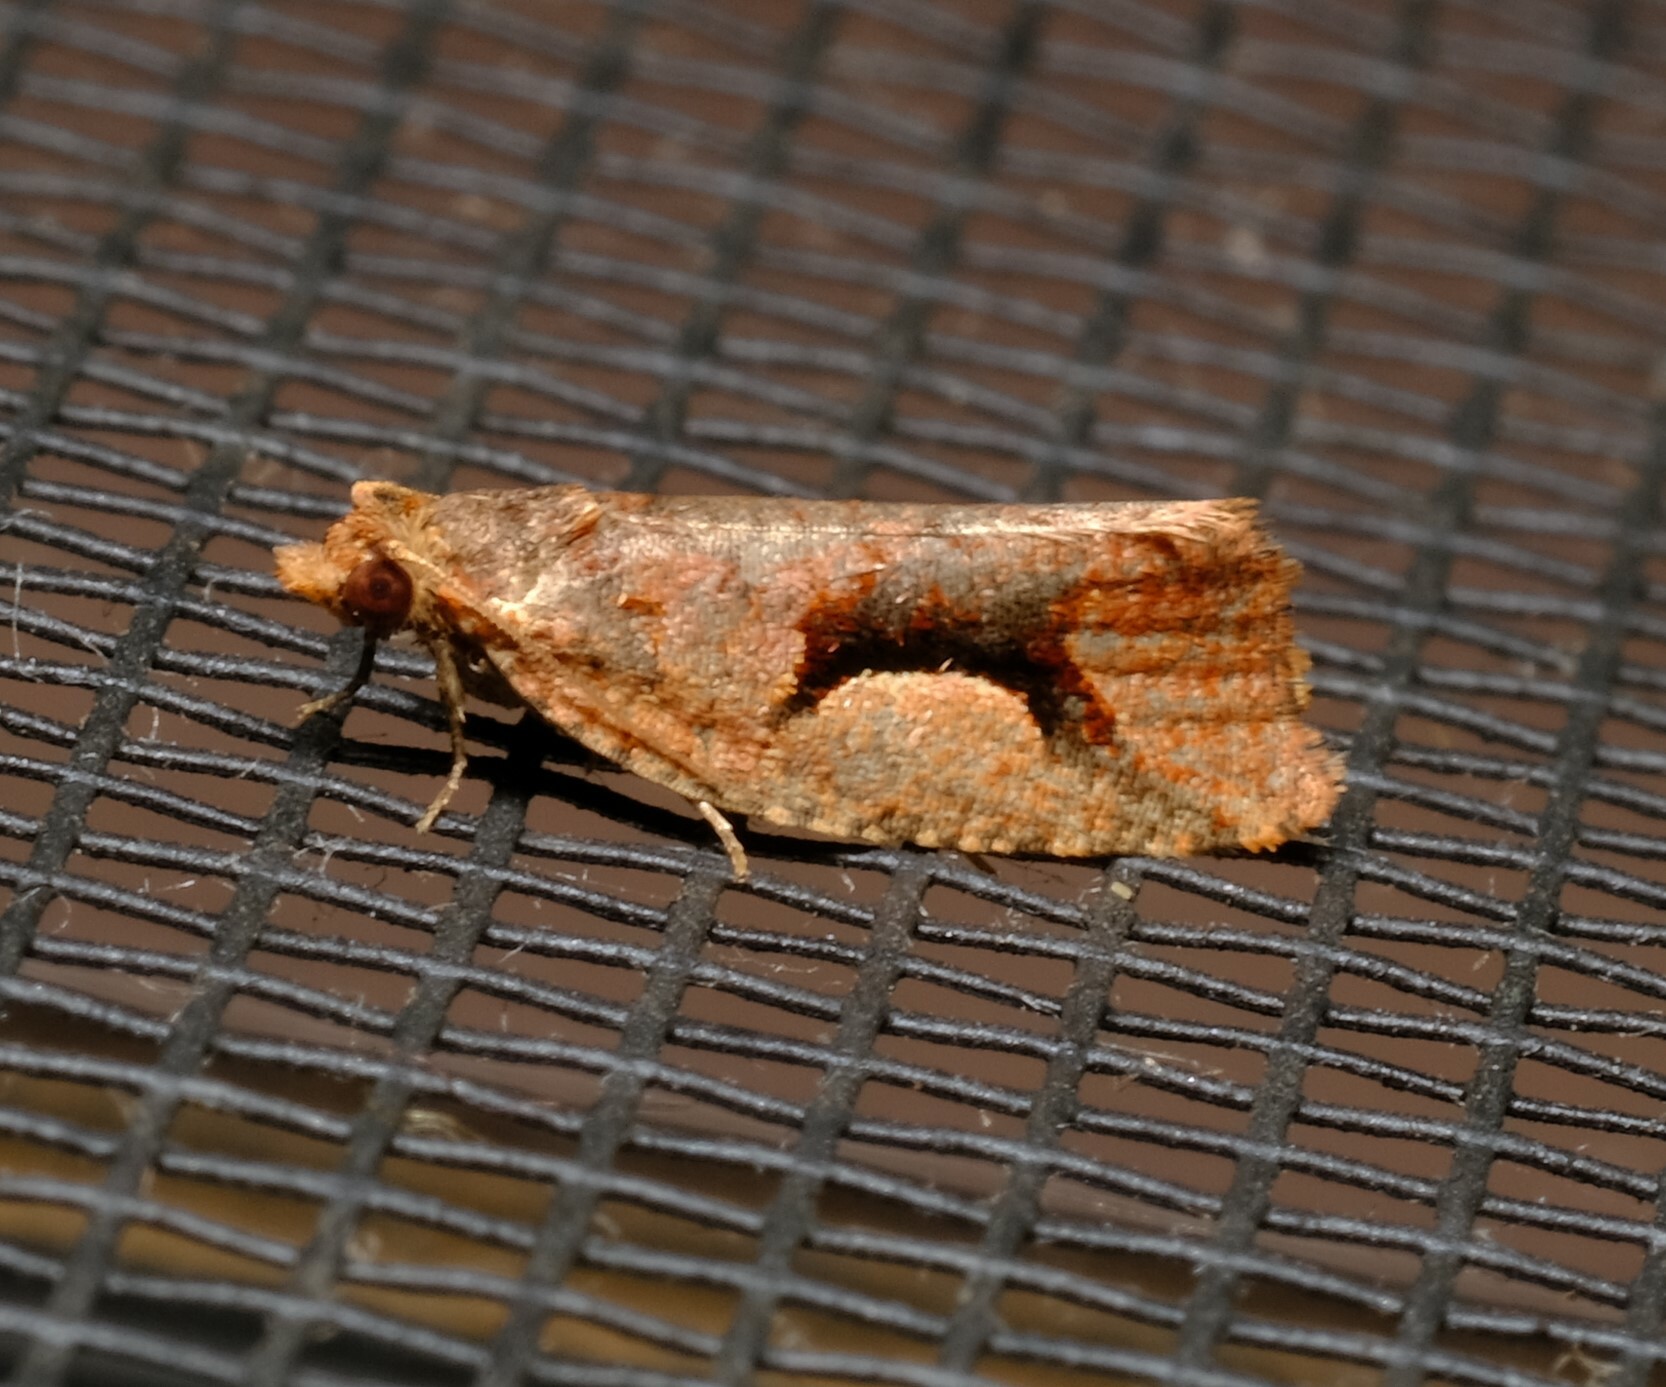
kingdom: Animalia
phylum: Arthropoda
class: Insecta
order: Lepidoptera
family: Tortricidae
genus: Epitymbia
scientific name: Epitymbia scotinopa
